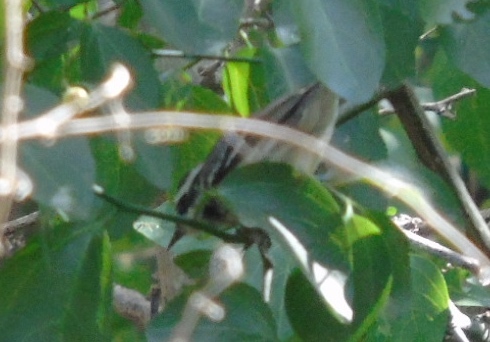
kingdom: Animalia
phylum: Chordata
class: Aves
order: Passeriformes
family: Parulidae
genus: Setophaga
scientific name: Setophaga nigrescens
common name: Black-throated gray warbler
